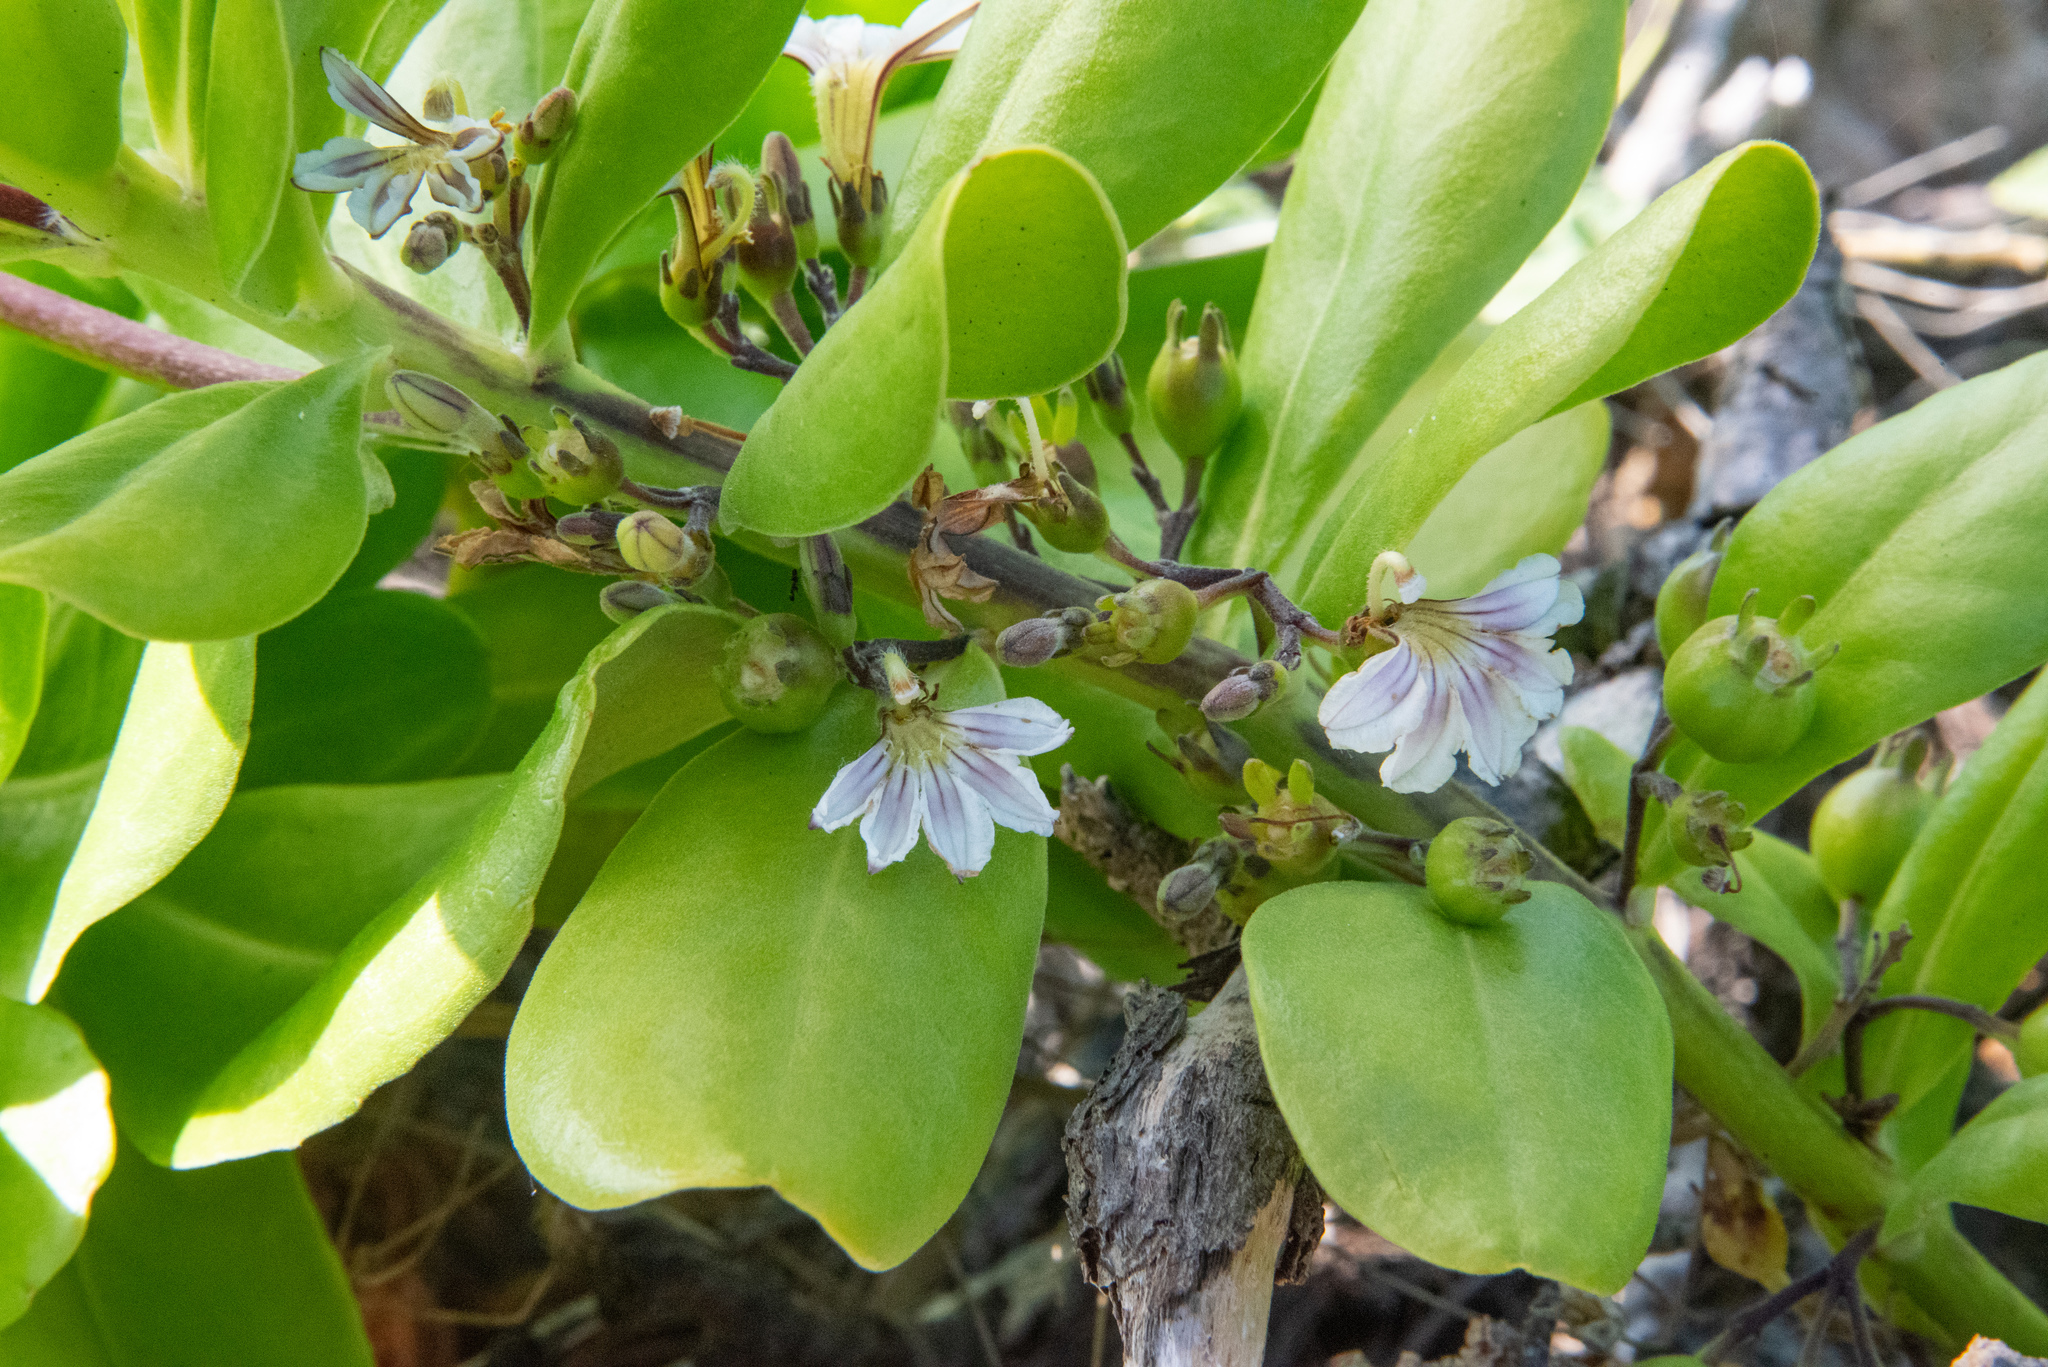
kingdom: Plantae
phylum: Tracheophyta
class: Magnoliopsida
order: Asterales
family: Goodeniaceae
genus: Scaevola
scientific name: Scaevola taccada
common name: Sea lettucetree
